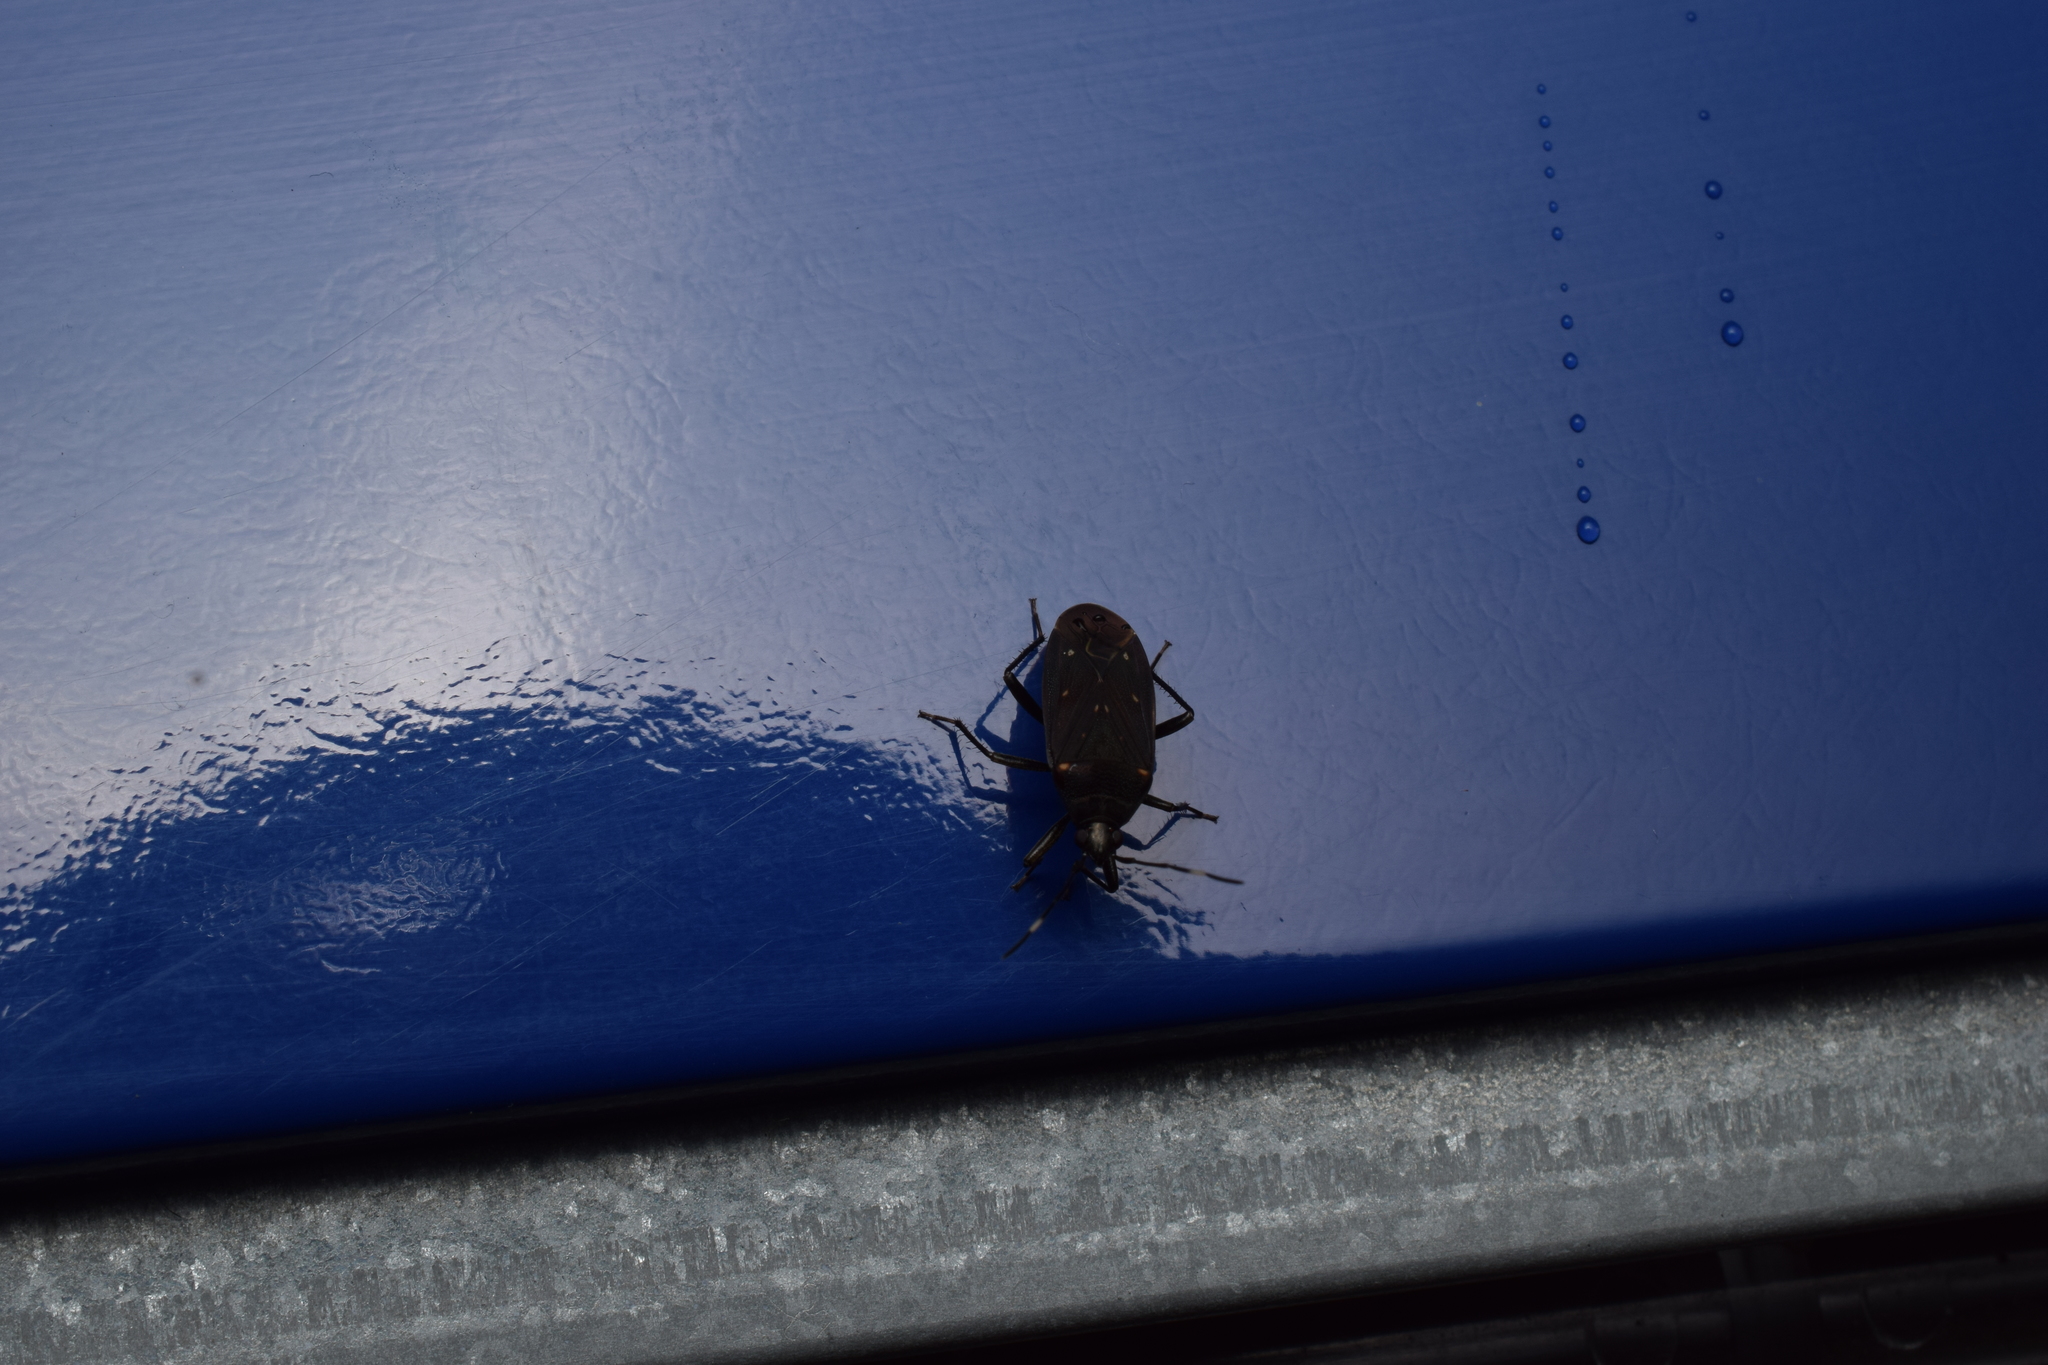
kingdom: Animalia
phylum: Arthropoda
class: Insecta
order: Hemiptera
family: Rhyparochromidae
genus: Neolethaeus
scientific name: Neolethaeus assamensis
